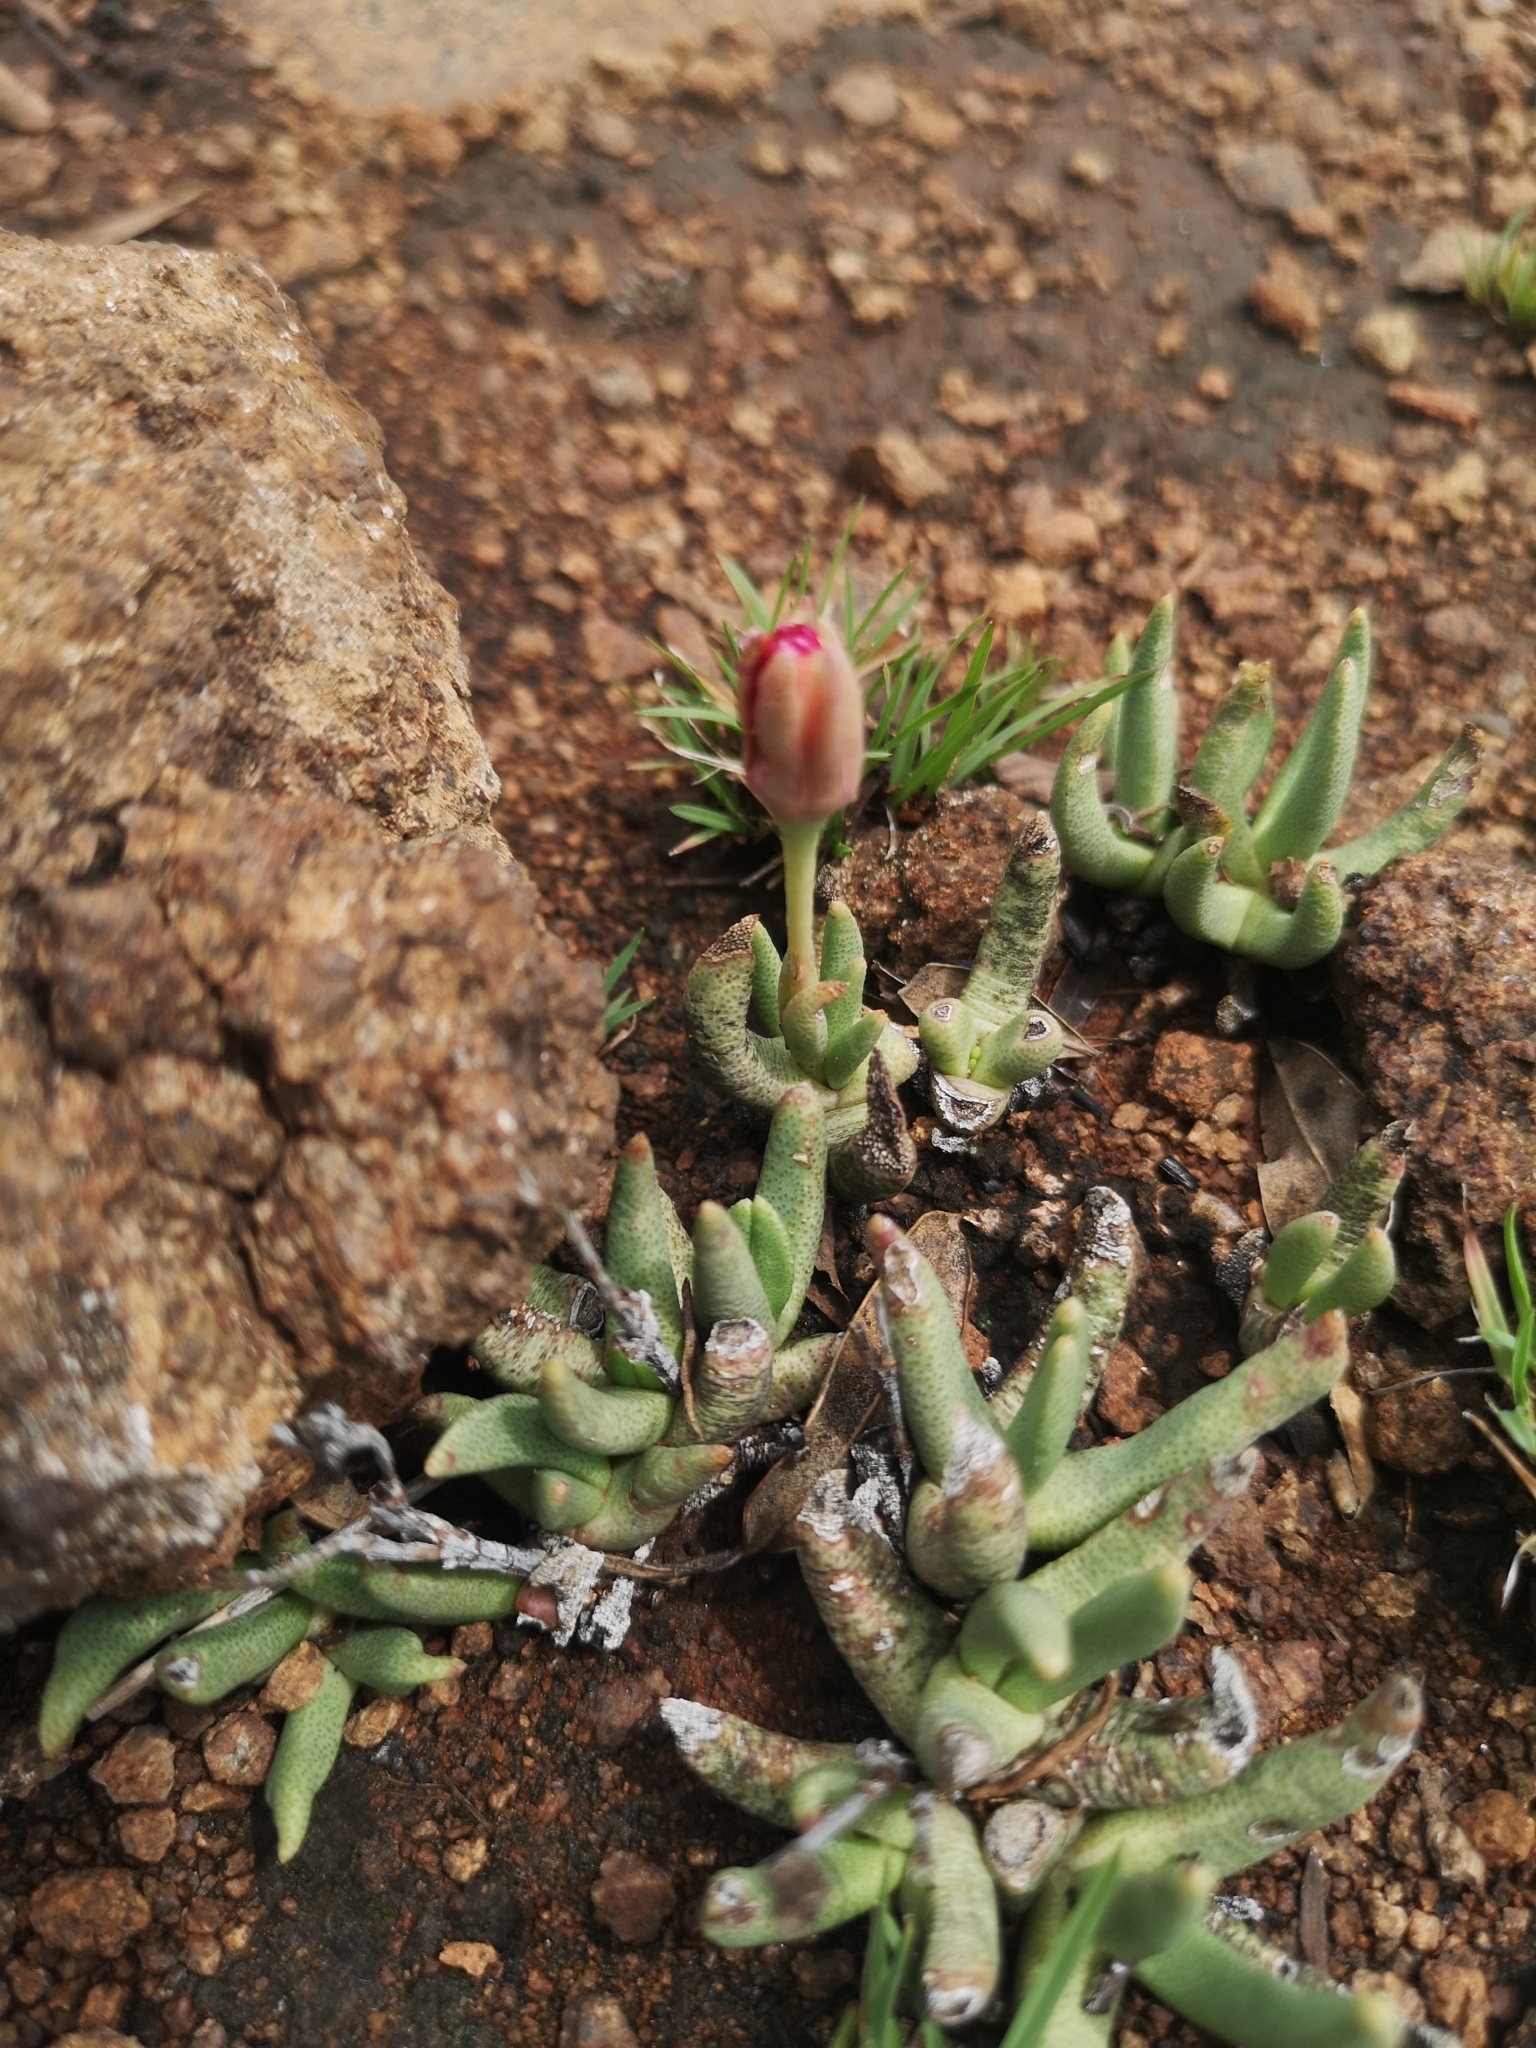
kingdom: Plantae
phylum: Tracheophyta
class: Magnoliopsida
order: Caryophyllales
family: Aizoaceae
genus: Dracophilus
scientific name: Dracophilus Hereroa glenensis
